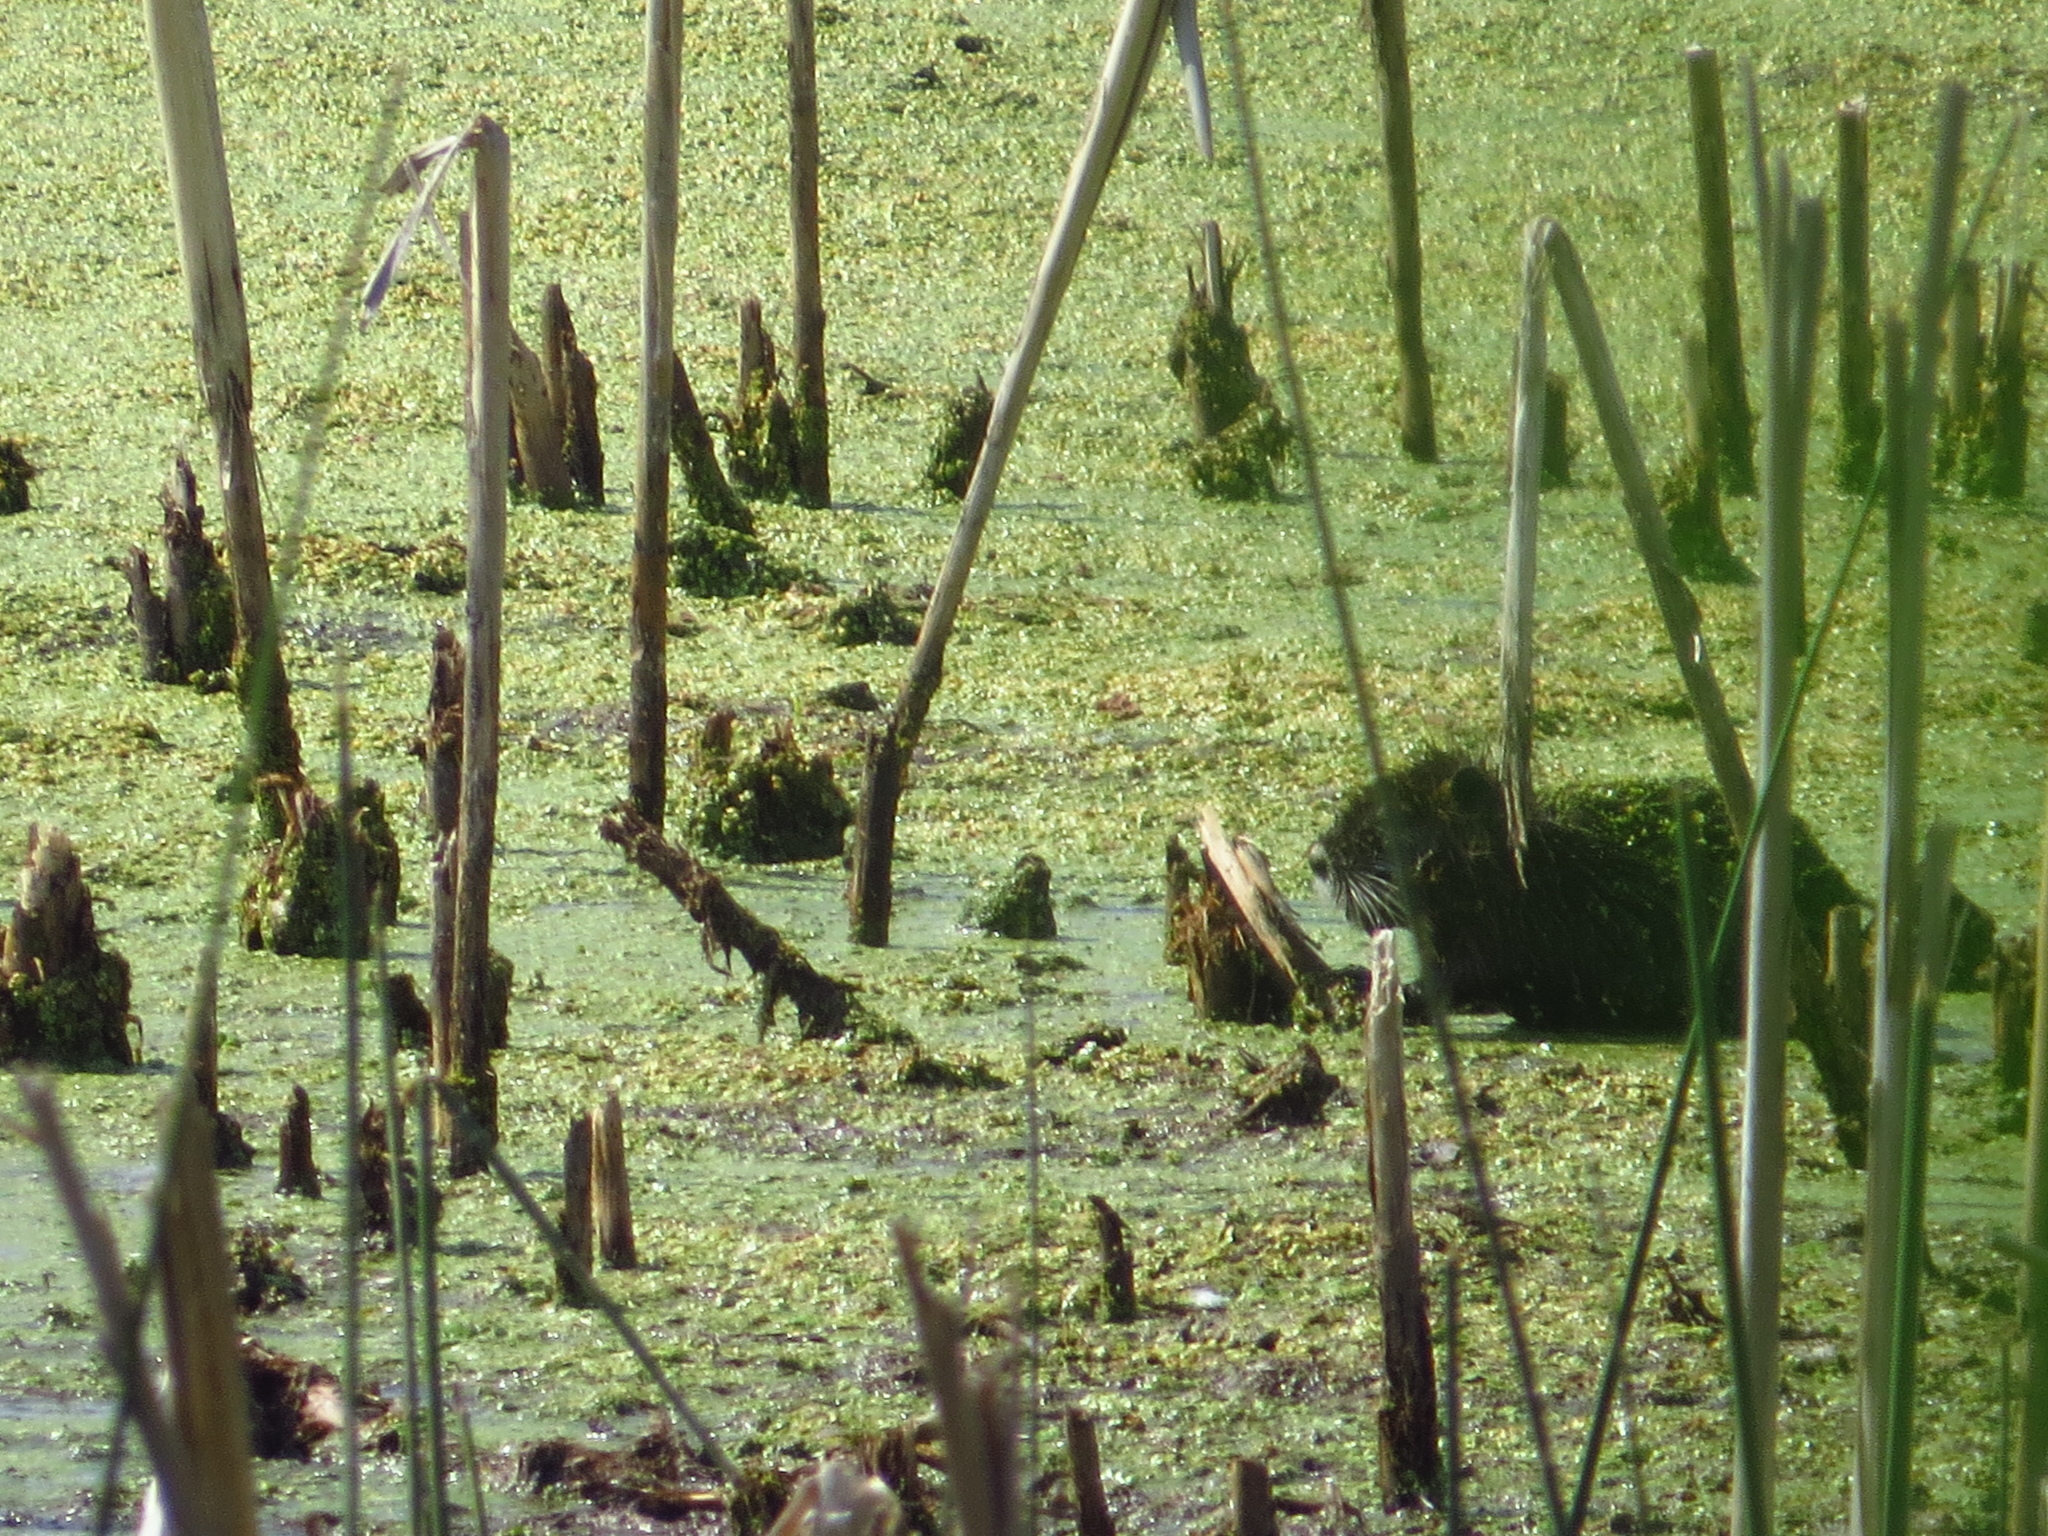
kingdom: Animalia
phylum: Chordata
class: Mammalia
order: Rodentia
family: Myocastoridae
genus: Myocastor
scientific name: Myocastor coypus
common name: Coypu
